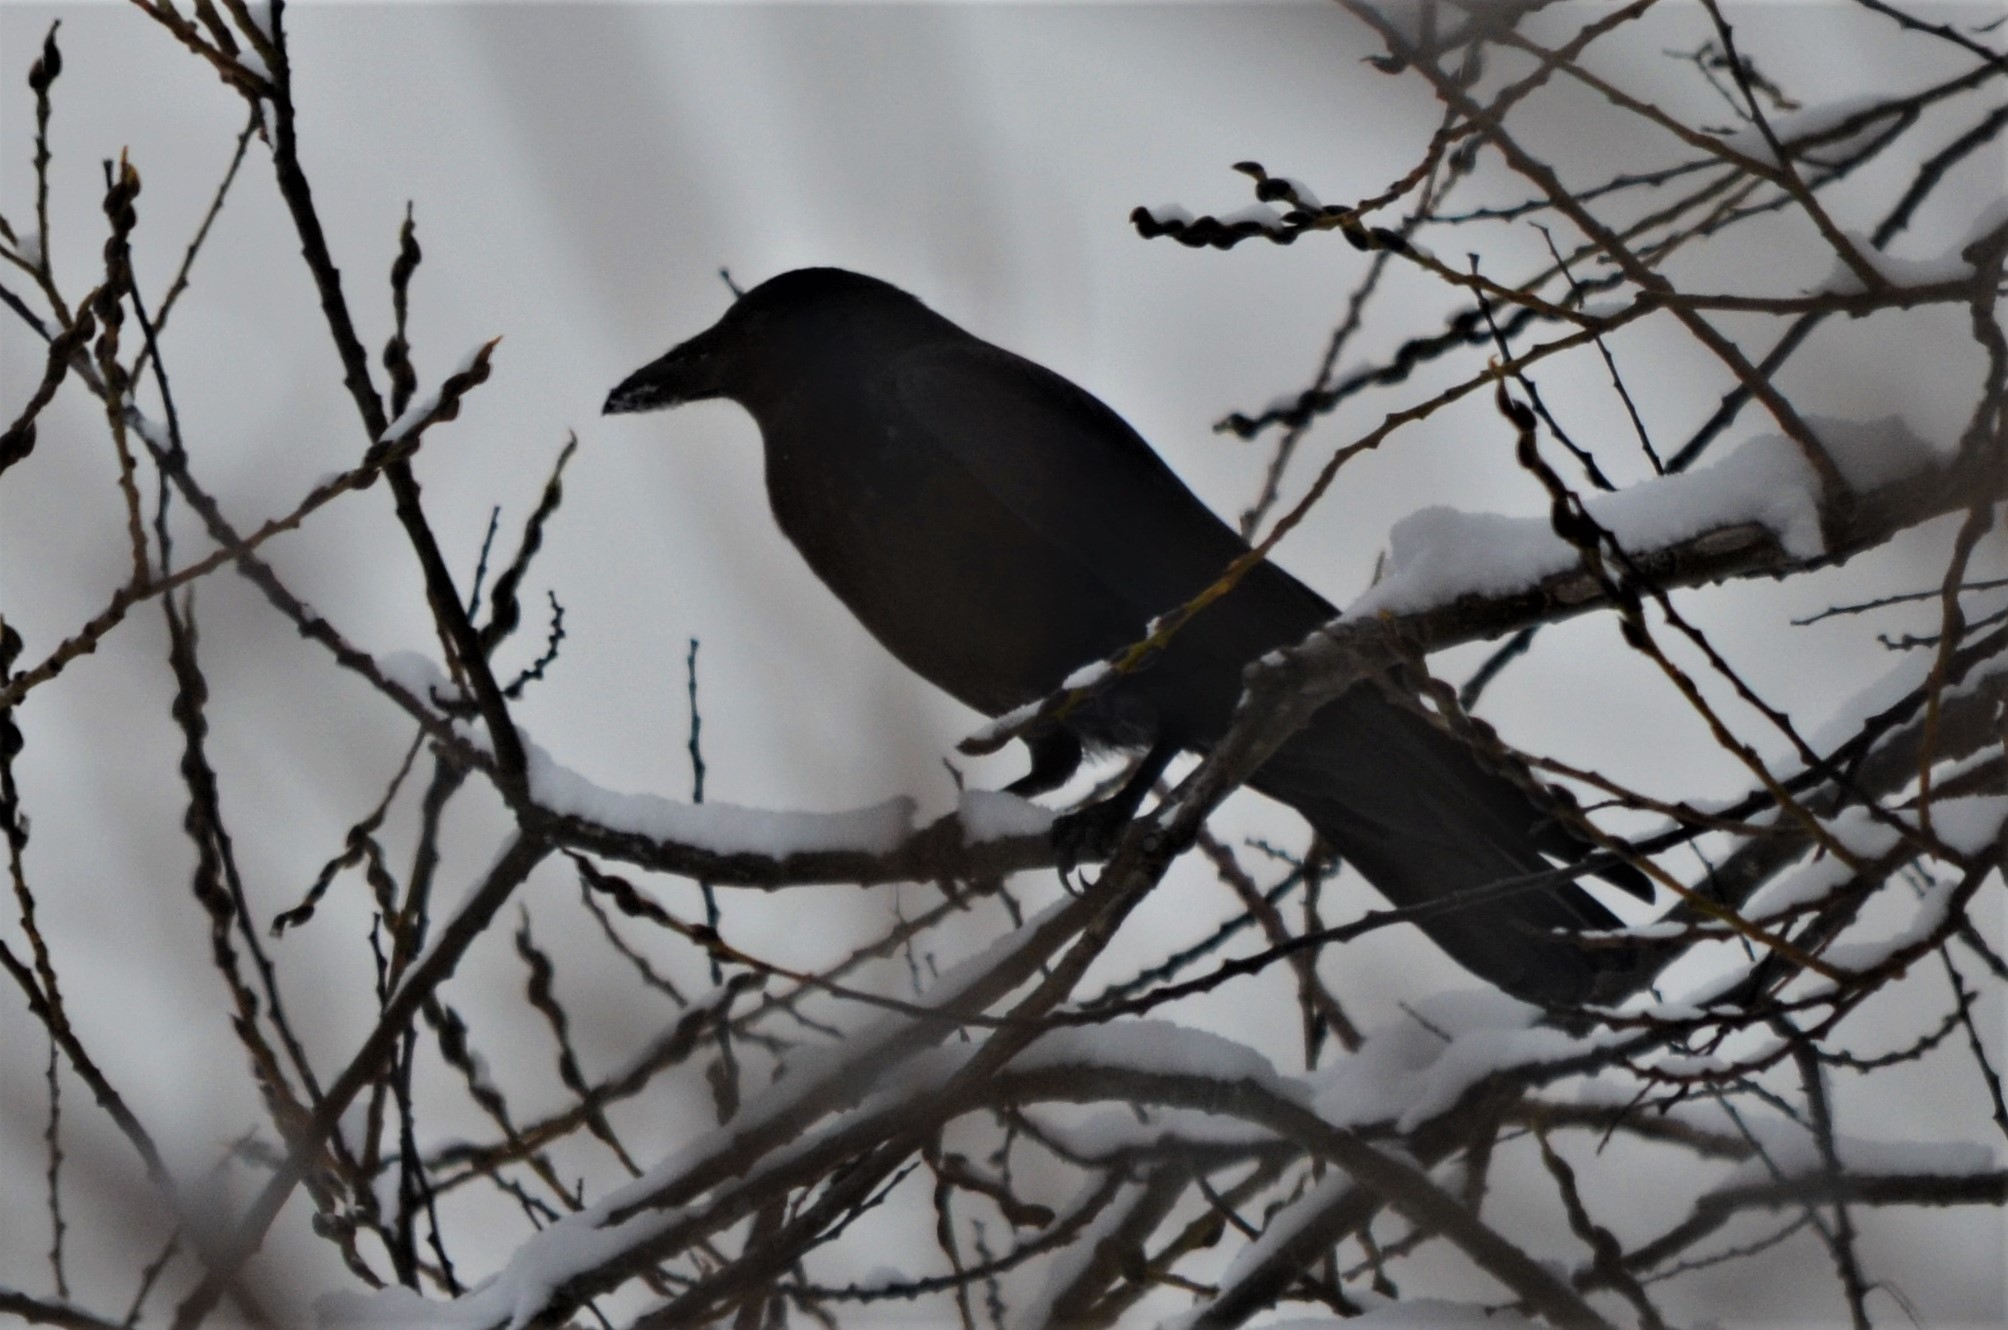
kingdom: Animalia
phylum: Chordata
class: Aves
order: Passeriformes
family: Corvidae
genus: Corvus
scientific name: Corvus corone
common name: Carrion crow
